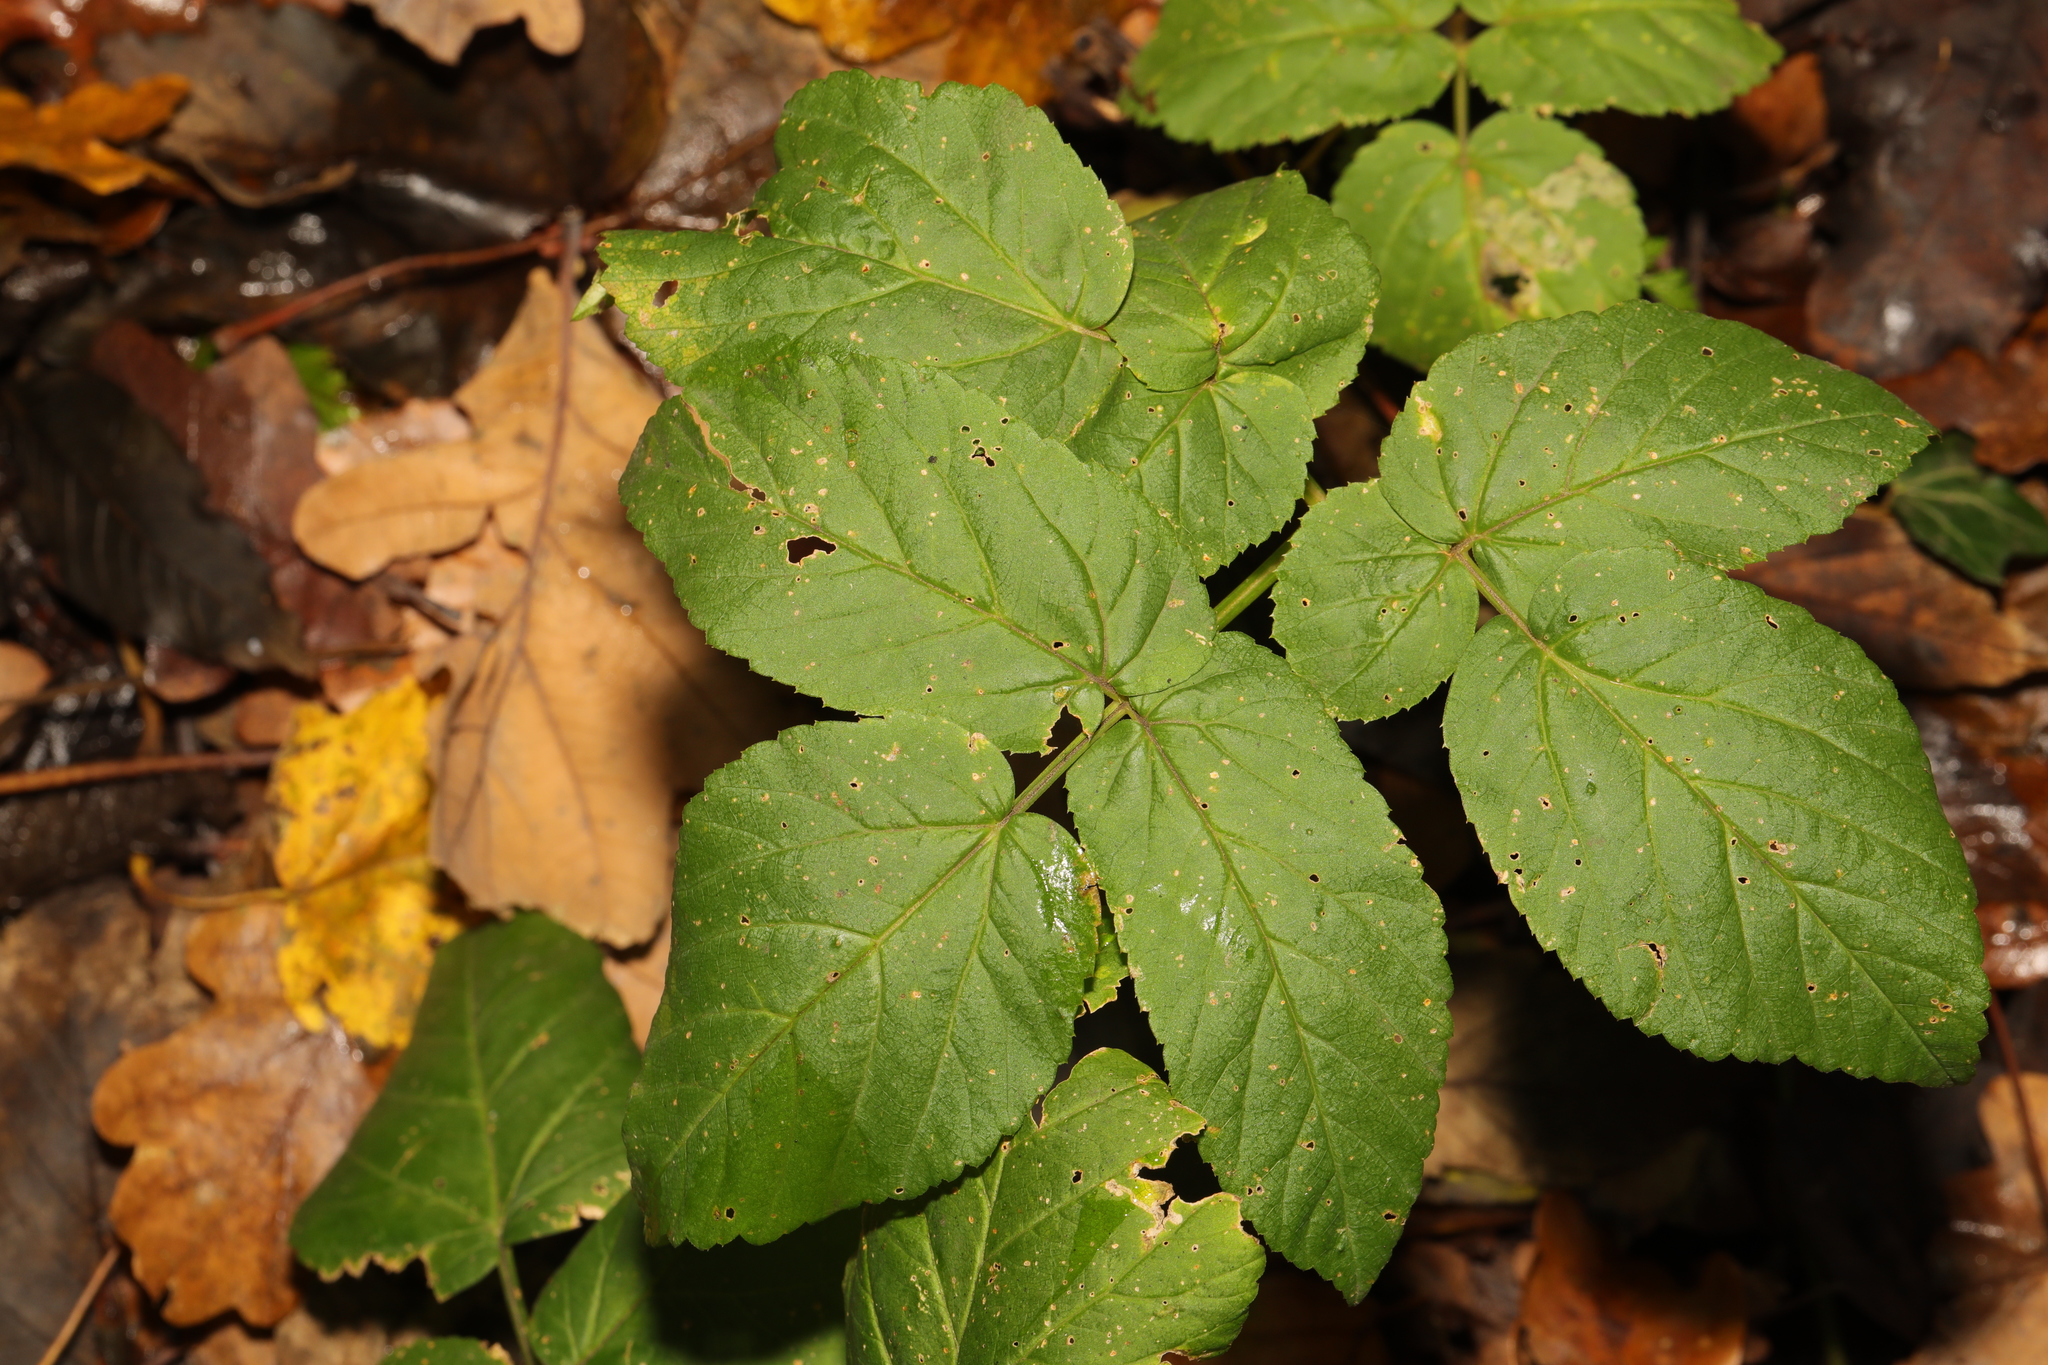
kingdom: Plantae
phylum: Tracheophyta
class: Magnoliopsida
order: Apiales
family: Apiaceae
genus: Aegopodium
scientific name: Aegopodium podagraria
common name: Ground-elder
